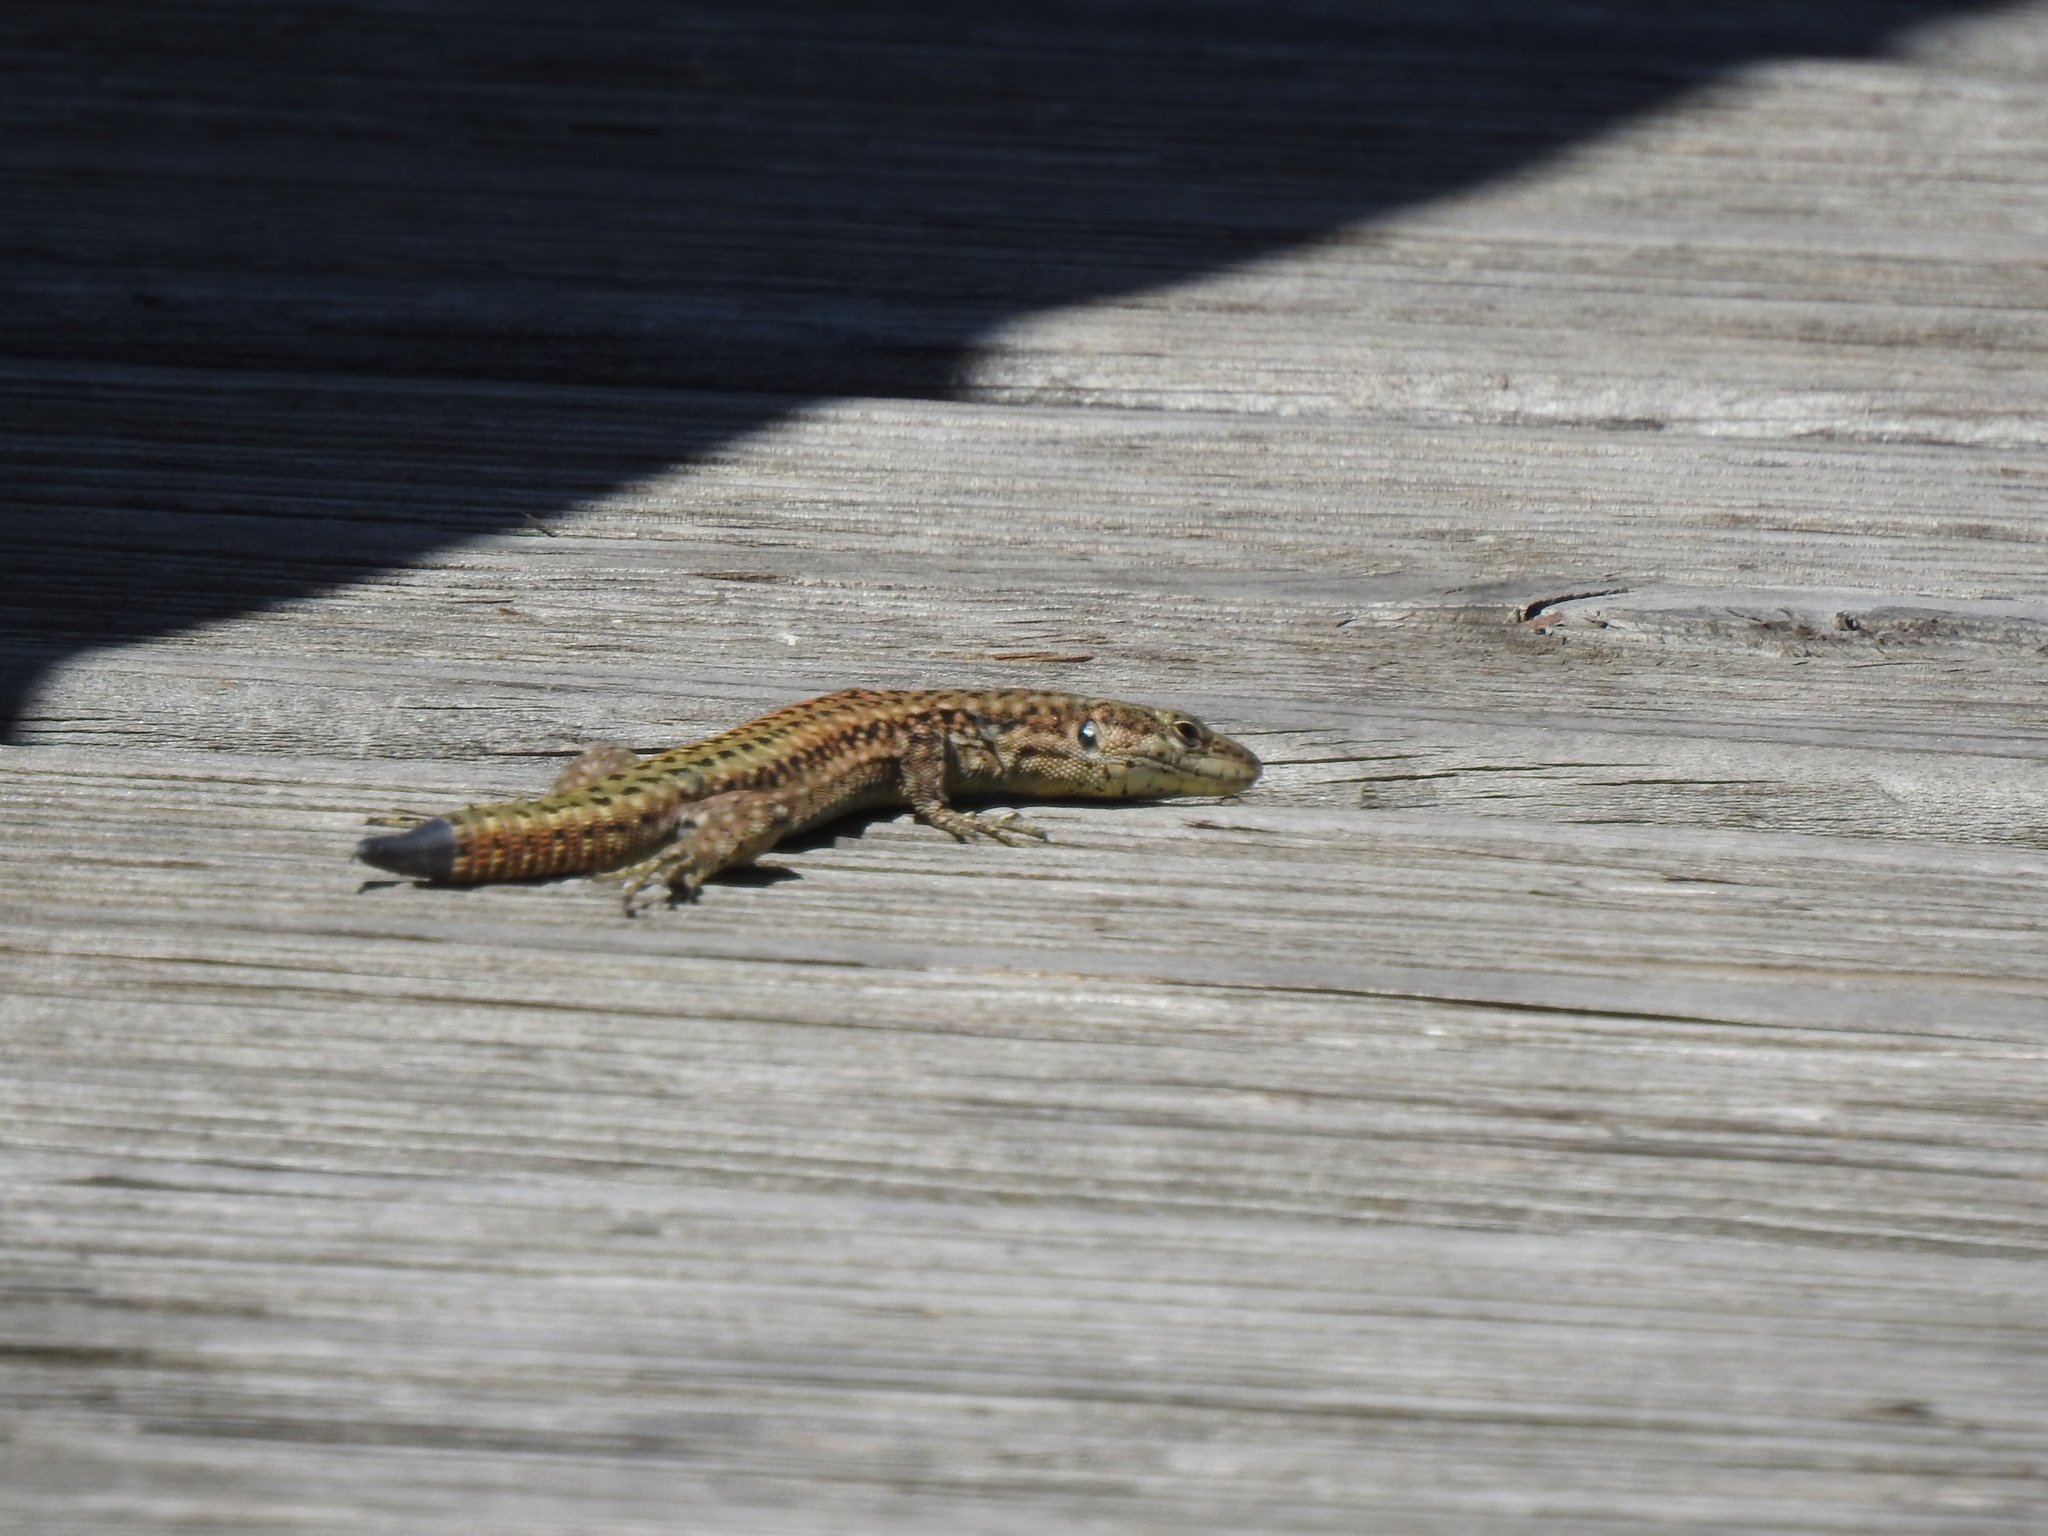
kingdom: Animalia
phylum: Chordata
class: Squamata
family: Lacertidae
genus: Podarcis
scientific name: Podarcis virescens
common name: Geniez’s wall lizard
